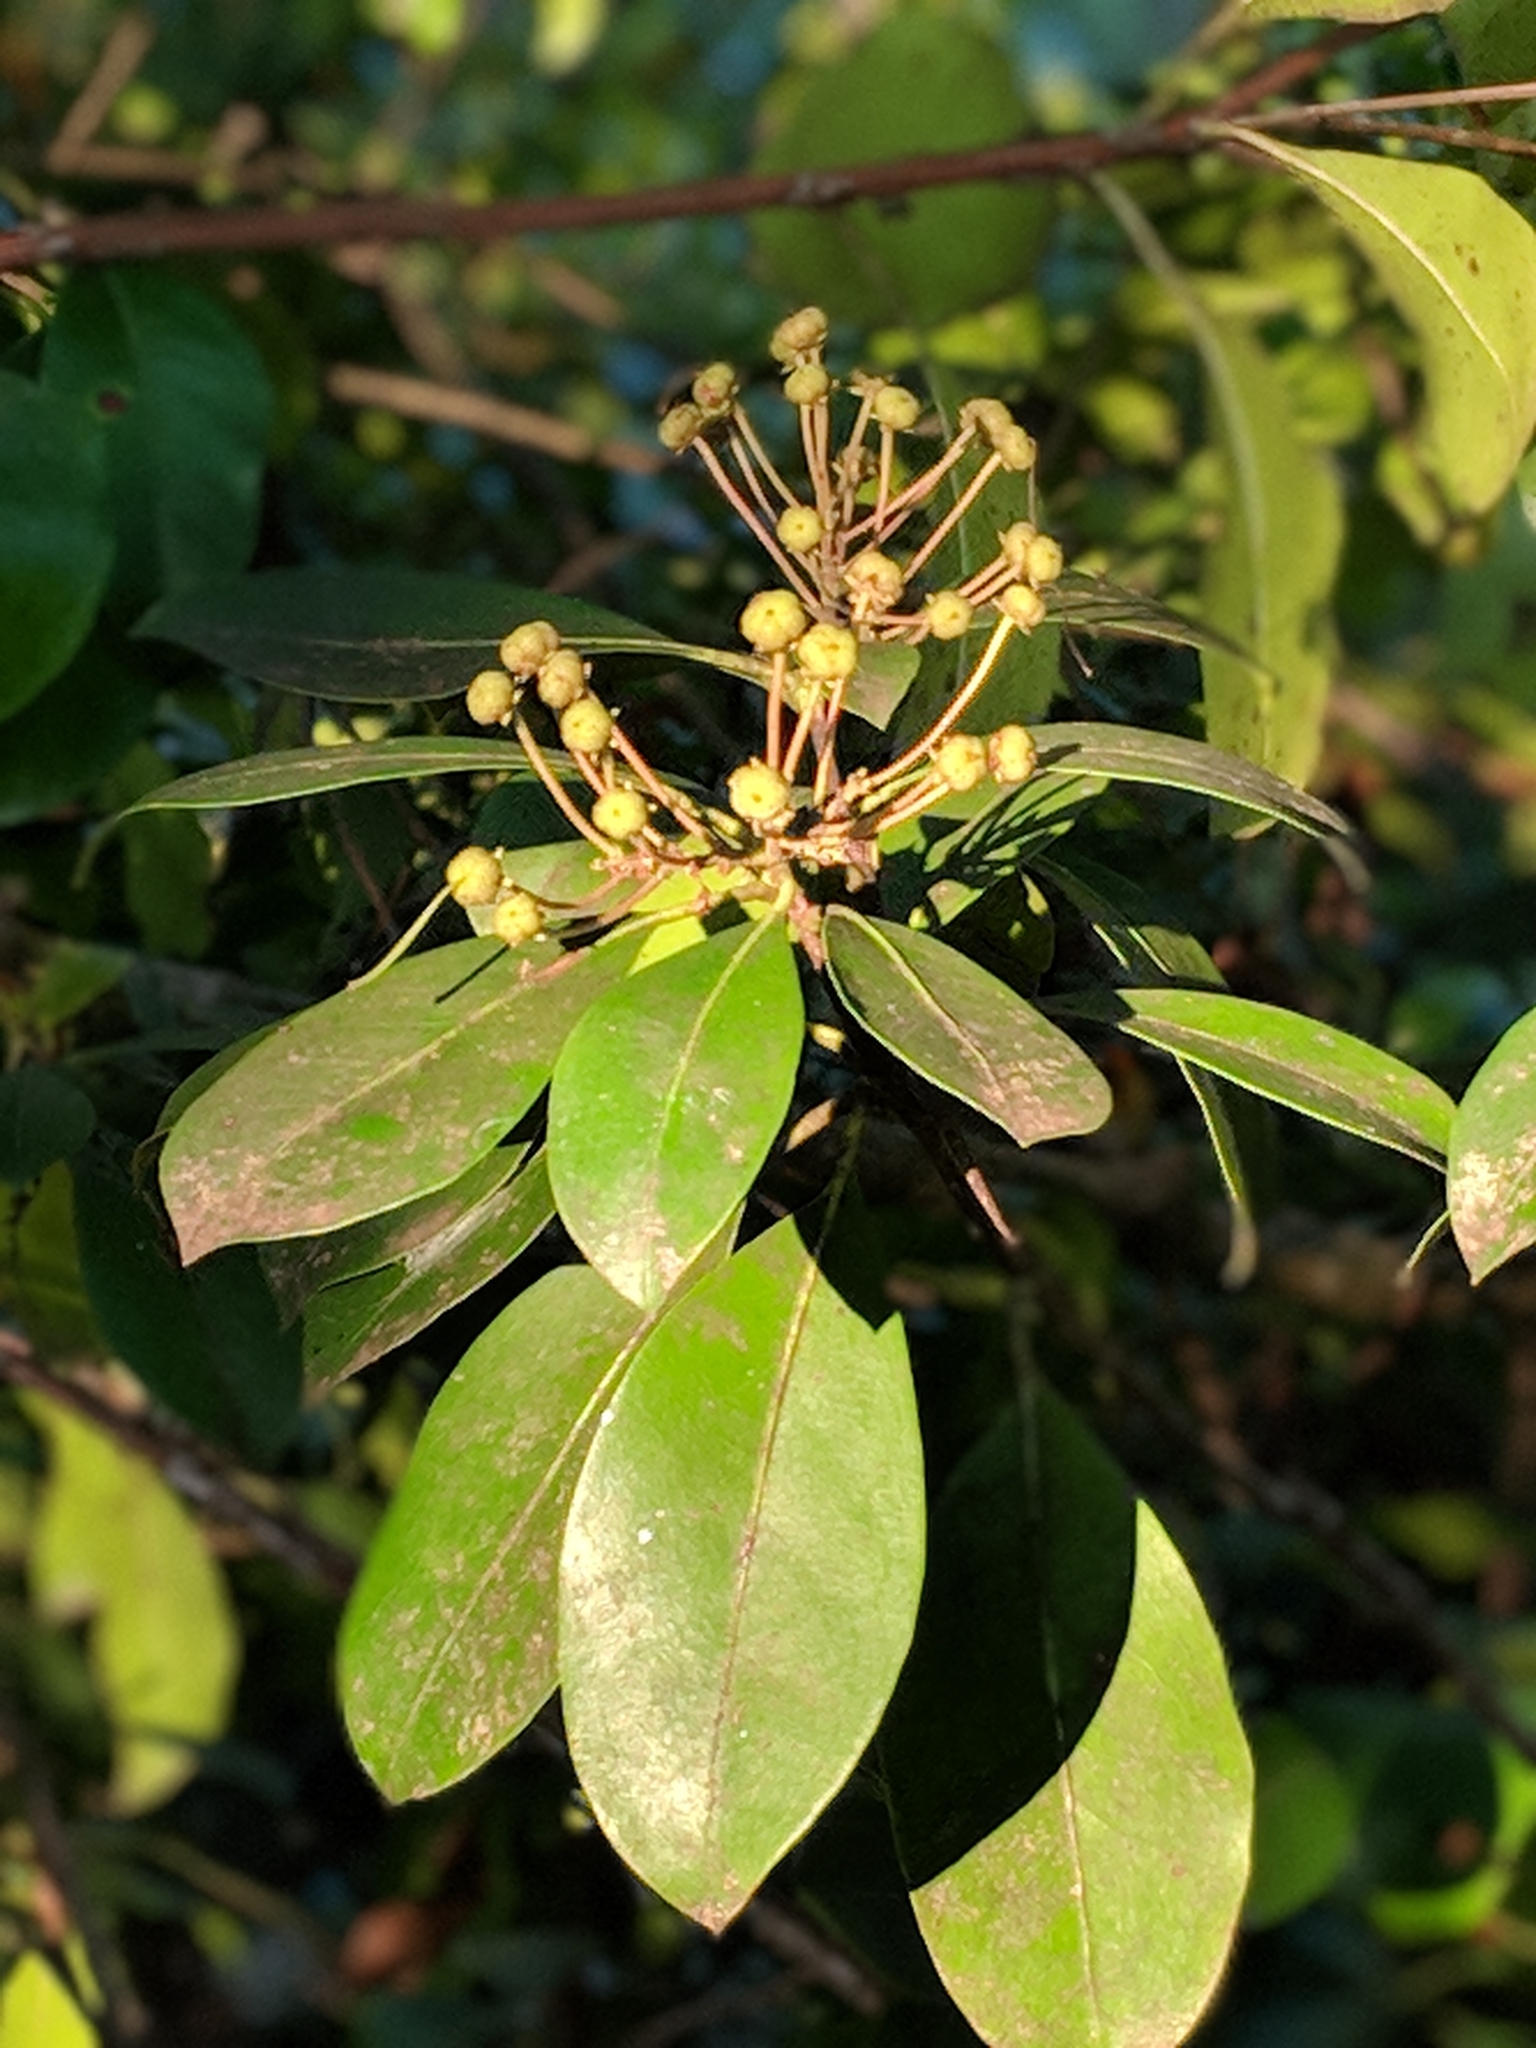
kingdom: Plantae
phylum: Tracheophyta
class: Magnoliopsida
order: Ericales
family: Ericaceae
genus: Kalmia
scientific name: Kalmia latifolia
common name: Mountain-laurel
